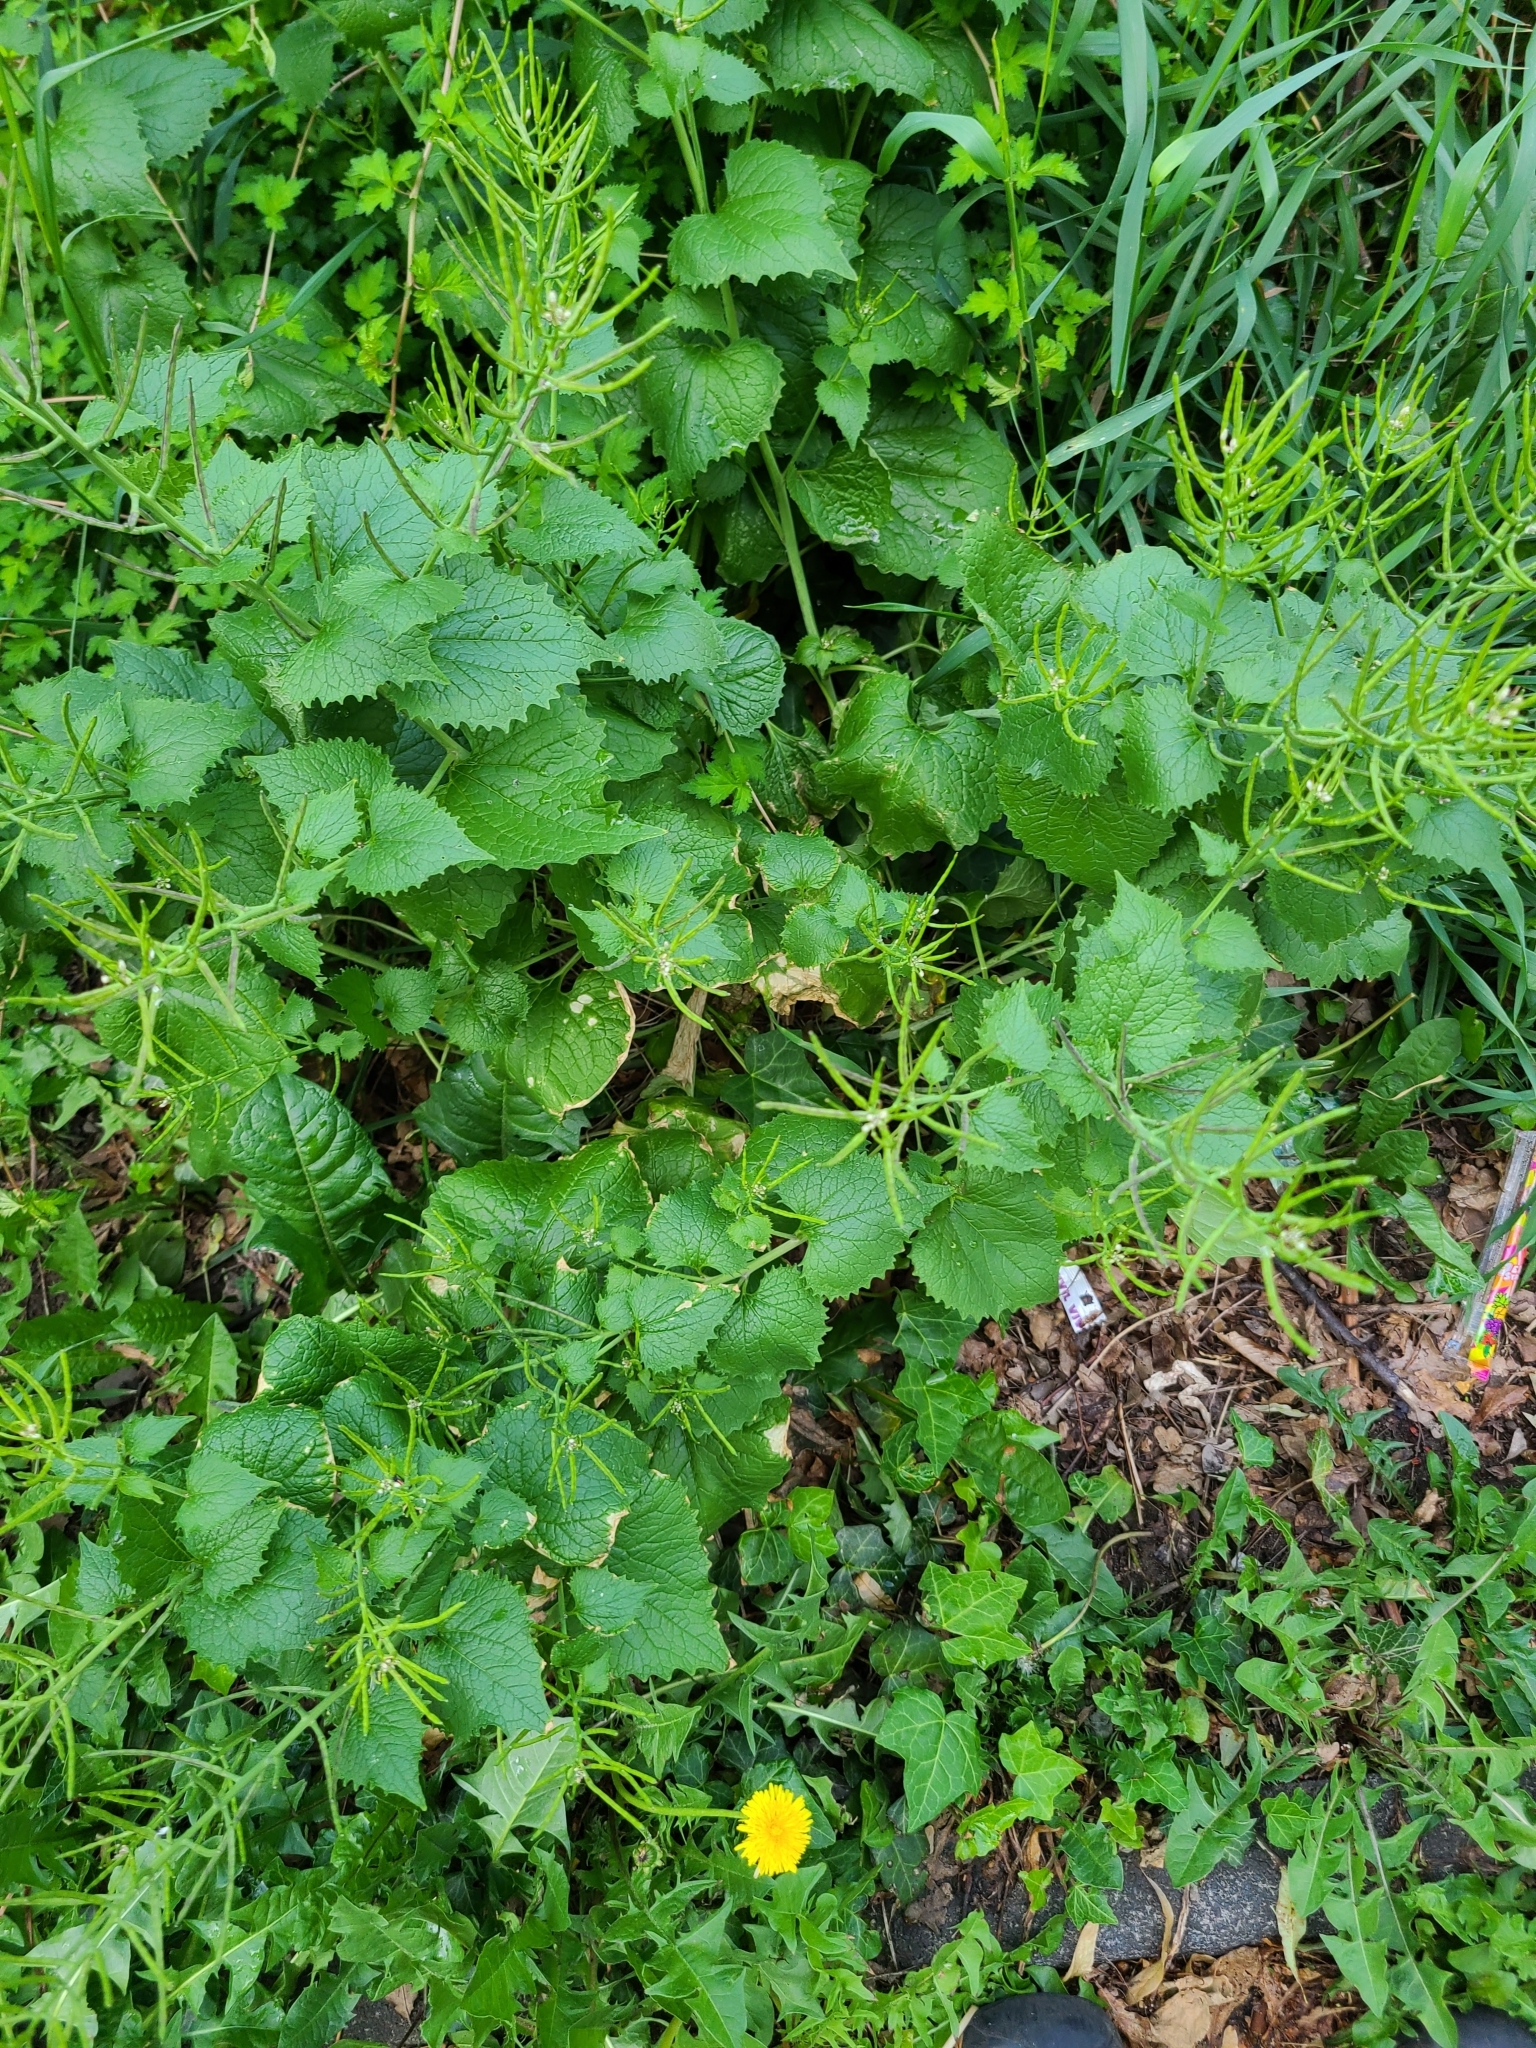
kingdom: Plantae
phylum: Tracheophyta
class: Magnoliopsida
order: Brassicales
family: Brassicaceae
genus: Alliaria
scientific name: Alliaria petiolata
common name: Garlic mustard
